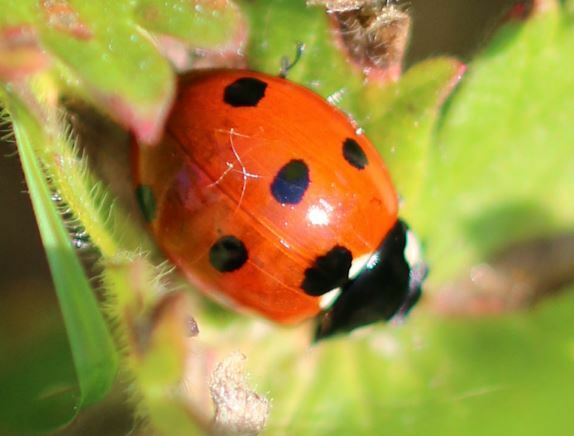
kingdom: Animalia
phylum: Arthropoda
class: Insecta
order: Coleoptera
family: Coccinellidae
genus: Coccinella
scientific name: Coccinella septempunctata
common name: Sevenspotted lady beetle
